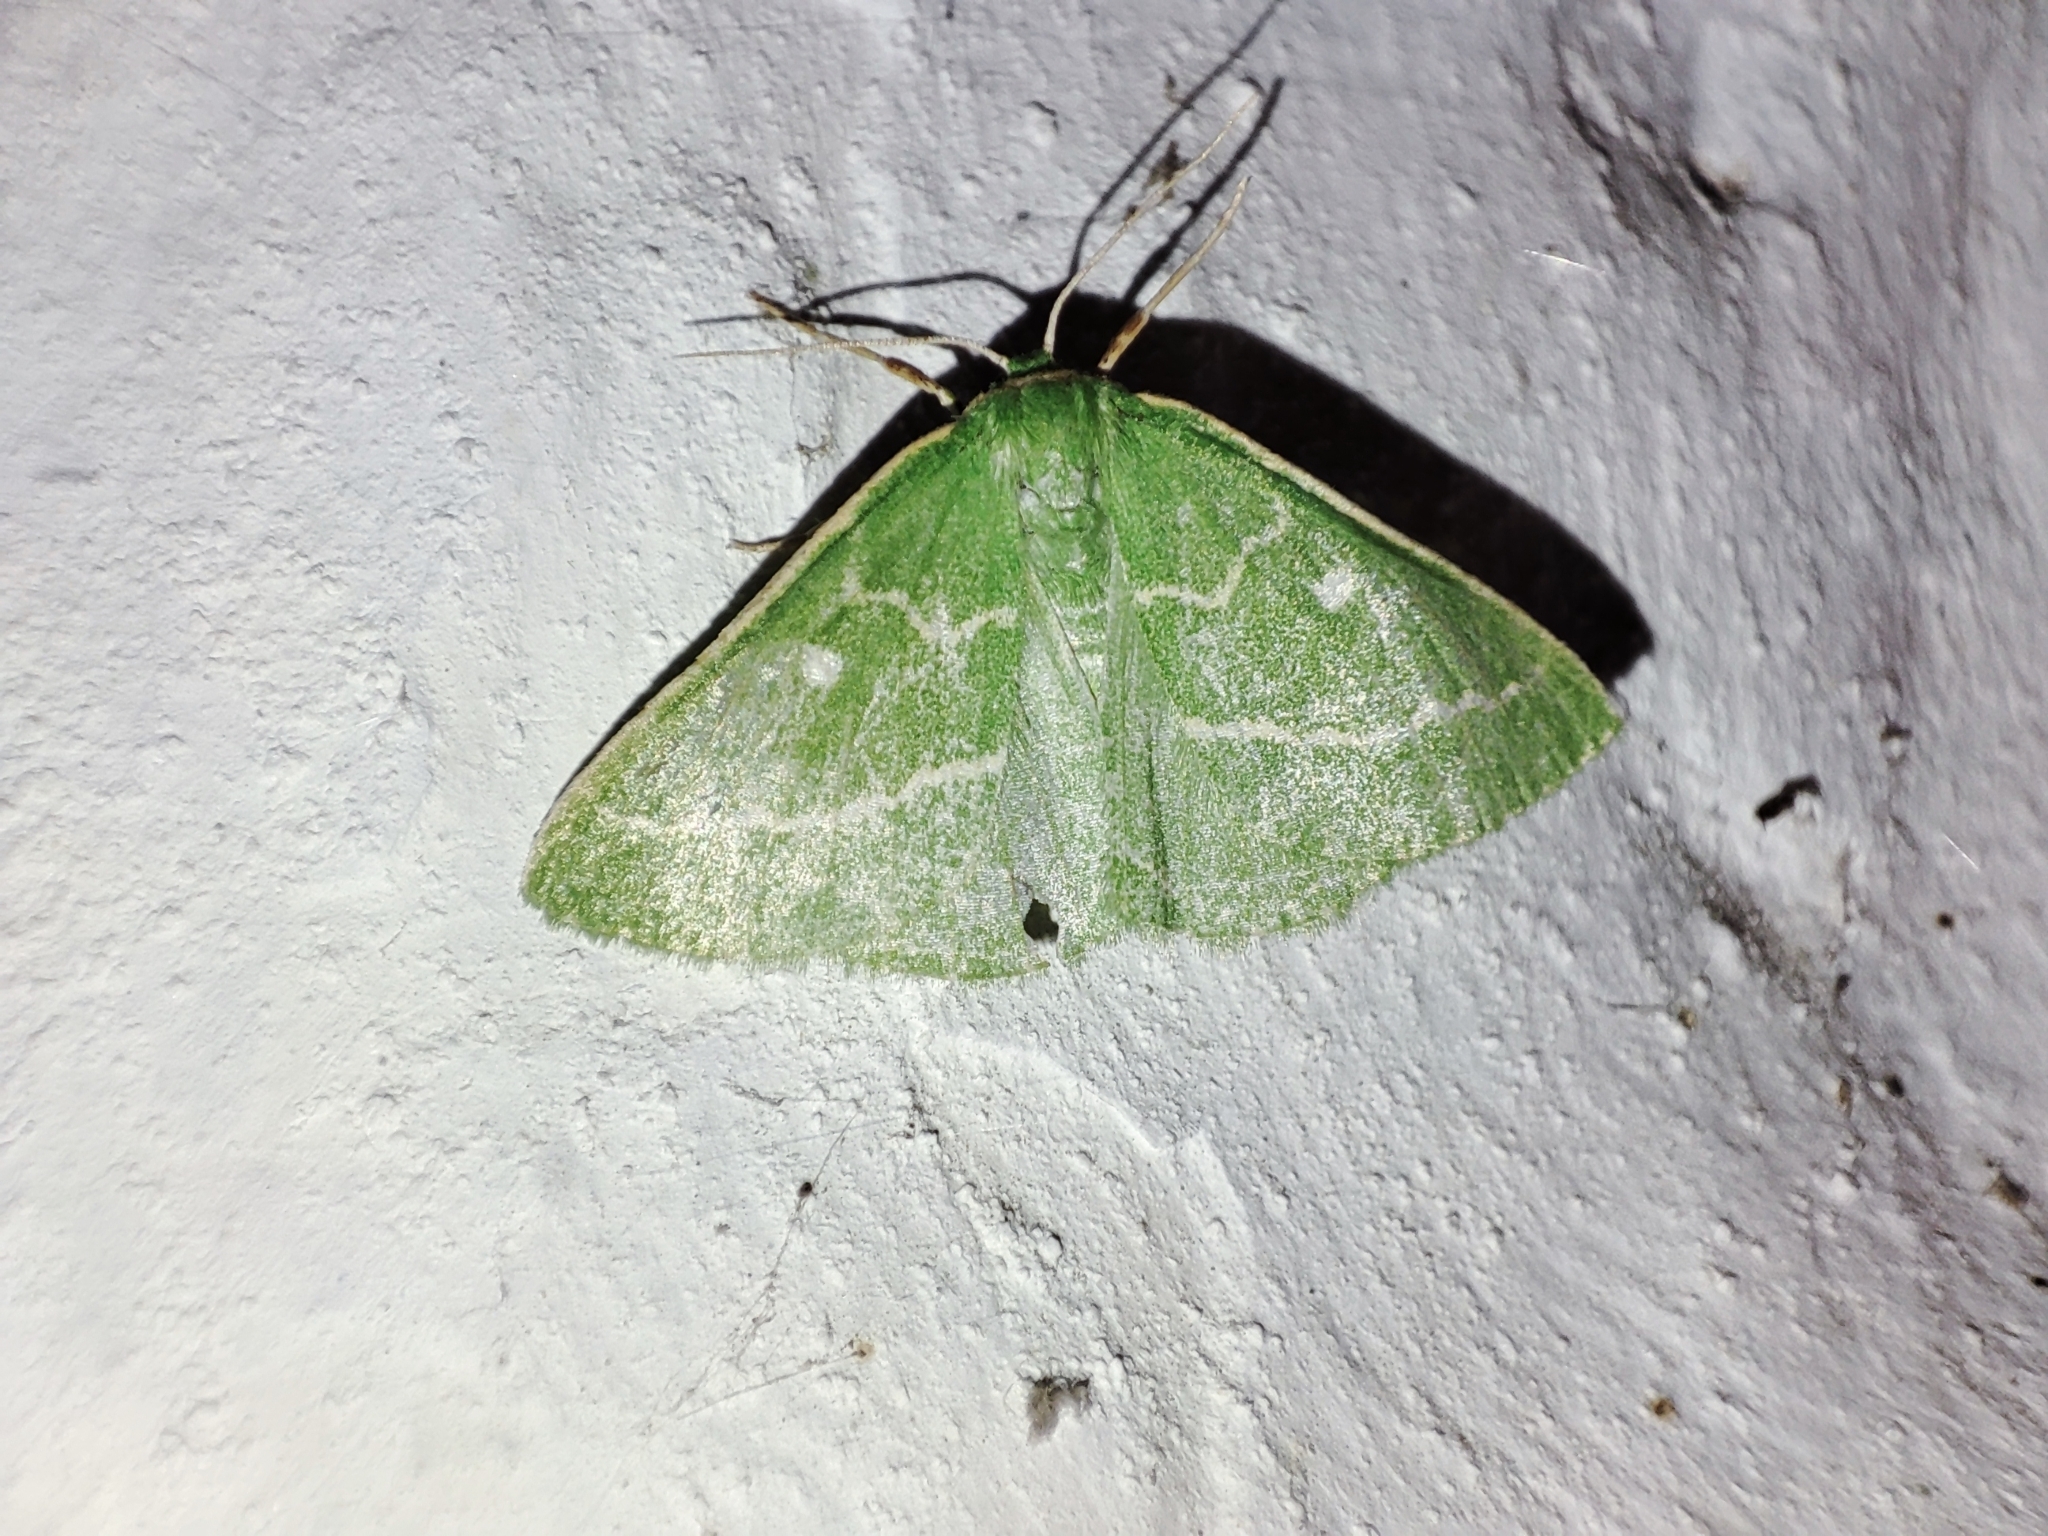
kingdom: Animalia
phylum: Arthropoda
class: Insecta
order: Lepidoptera
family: Geometridae
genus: Thetidia
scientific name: Thetidia smaragdaria
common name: Essex emerald
